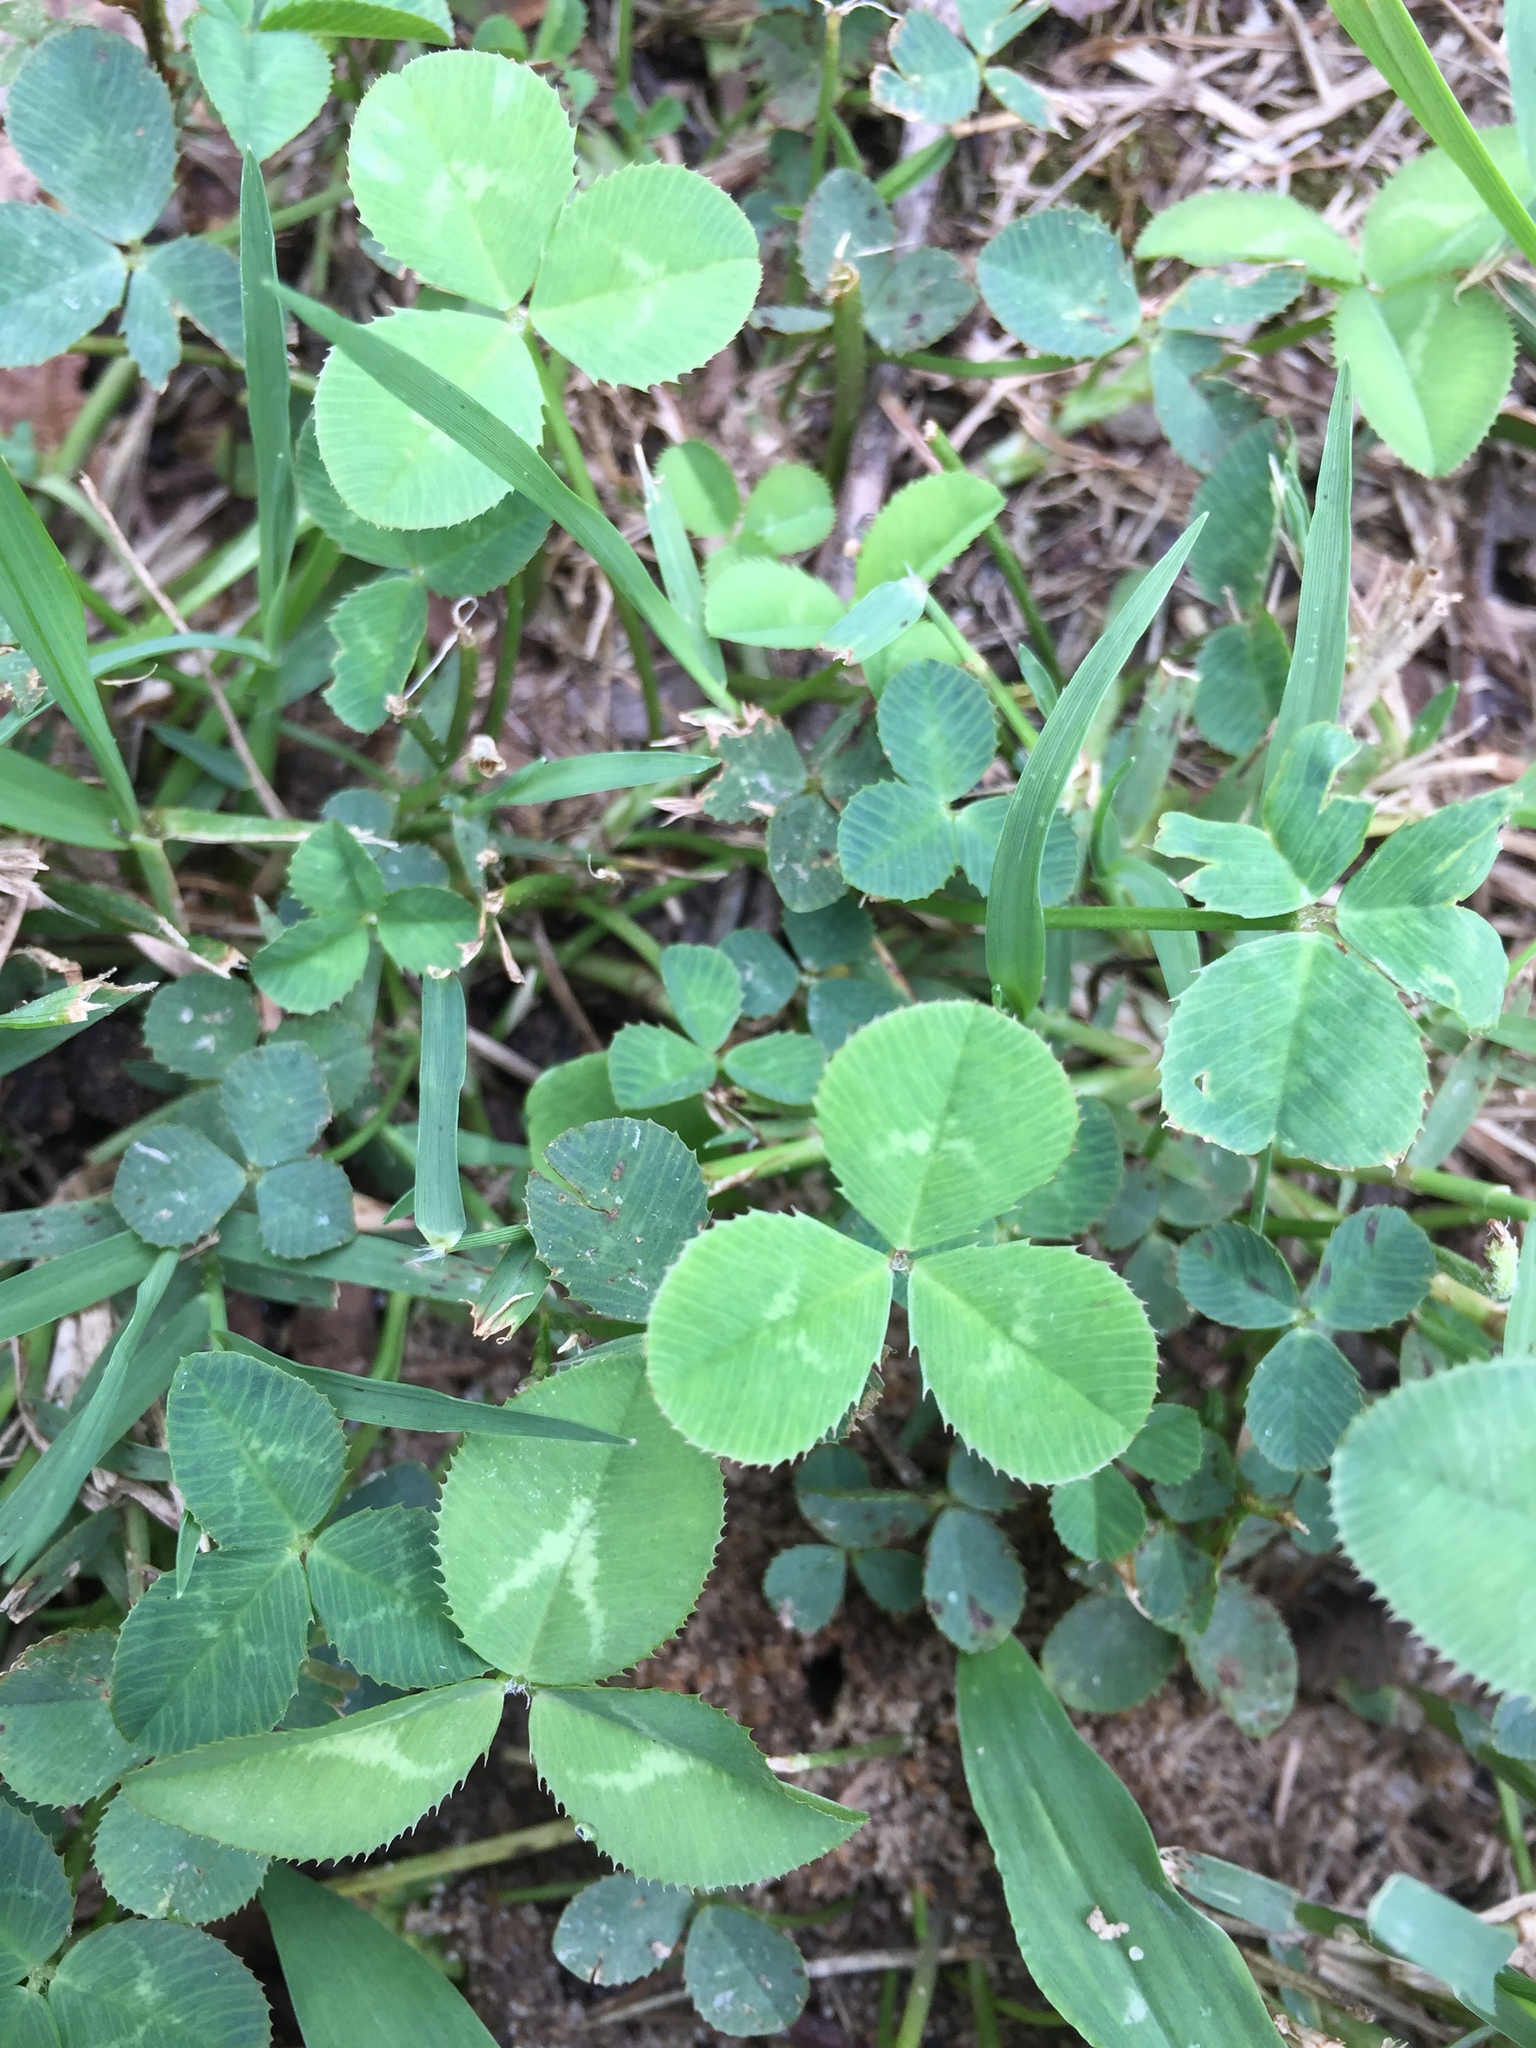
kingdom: Plantae
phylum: Tracheophyta
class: Magnoliopsida
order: Fabales
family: Fabaceae
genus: Trifolium
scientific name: Trifolium repens
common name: White clover
